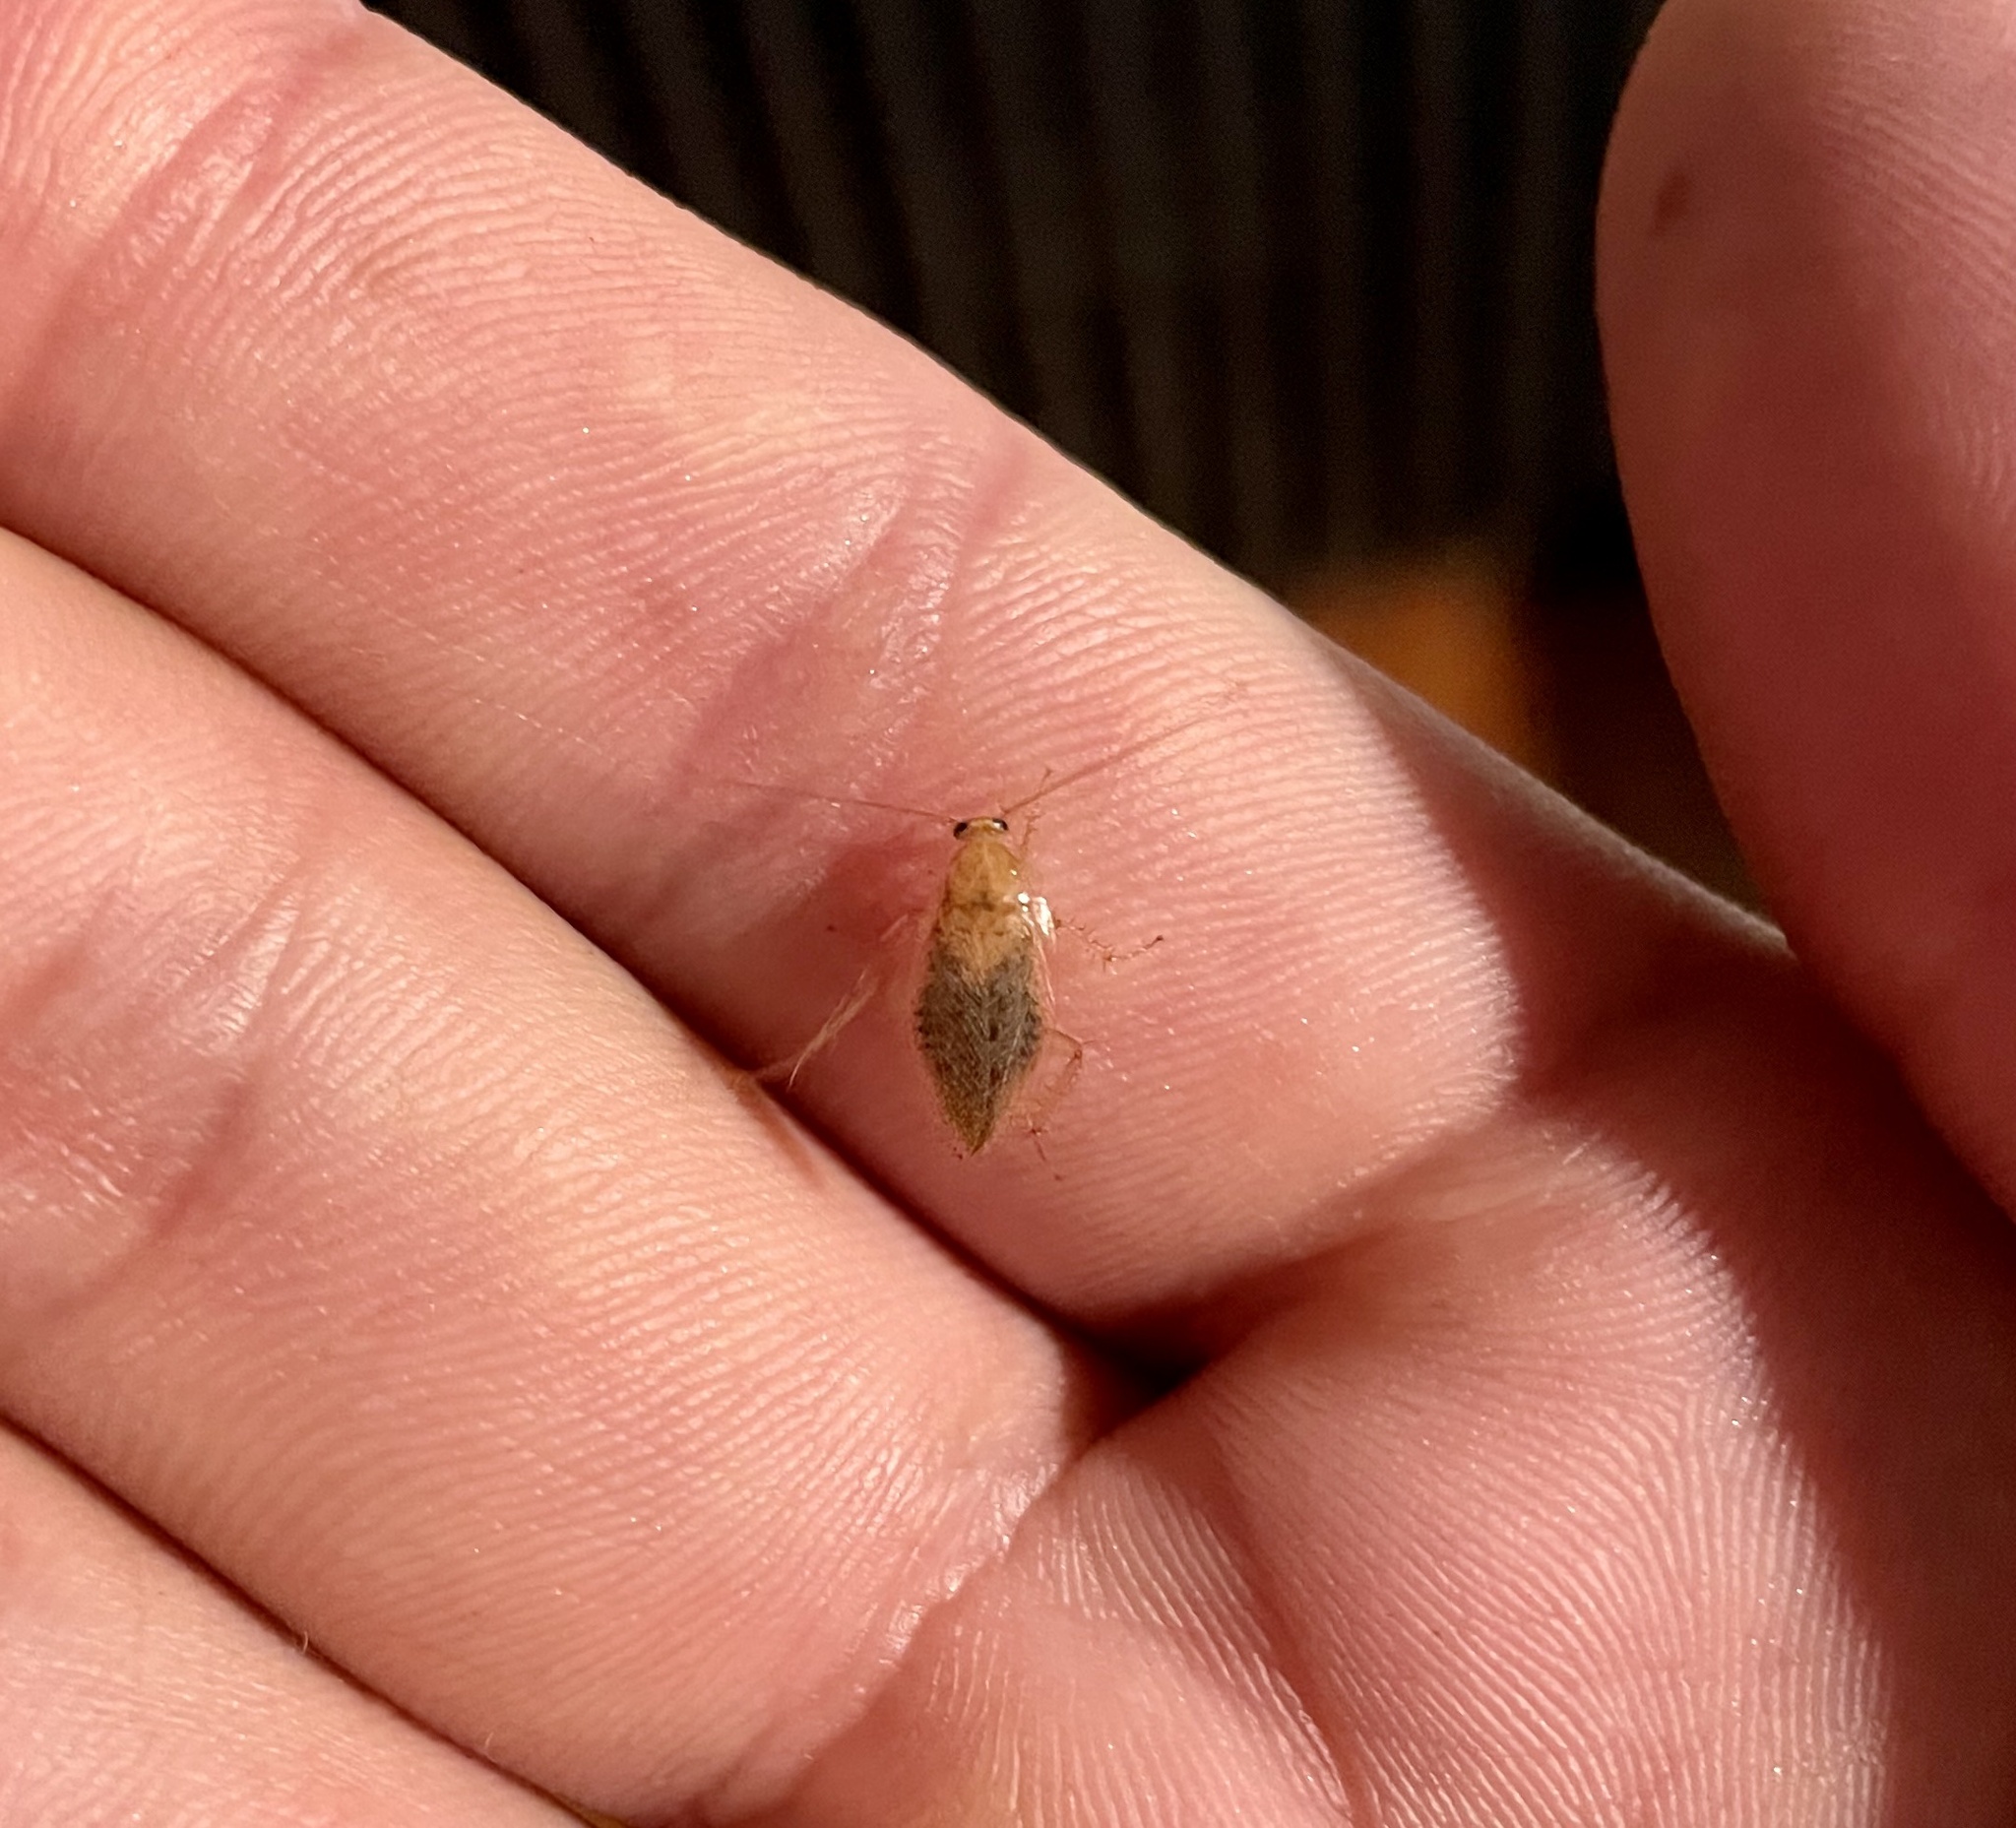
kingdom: Animalia
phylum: Arthropoda
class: Insecta
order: Blattodea
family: Ectobiidae
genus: Ectobius
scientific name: Ectobius pallidus
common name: Tawny cockroach
